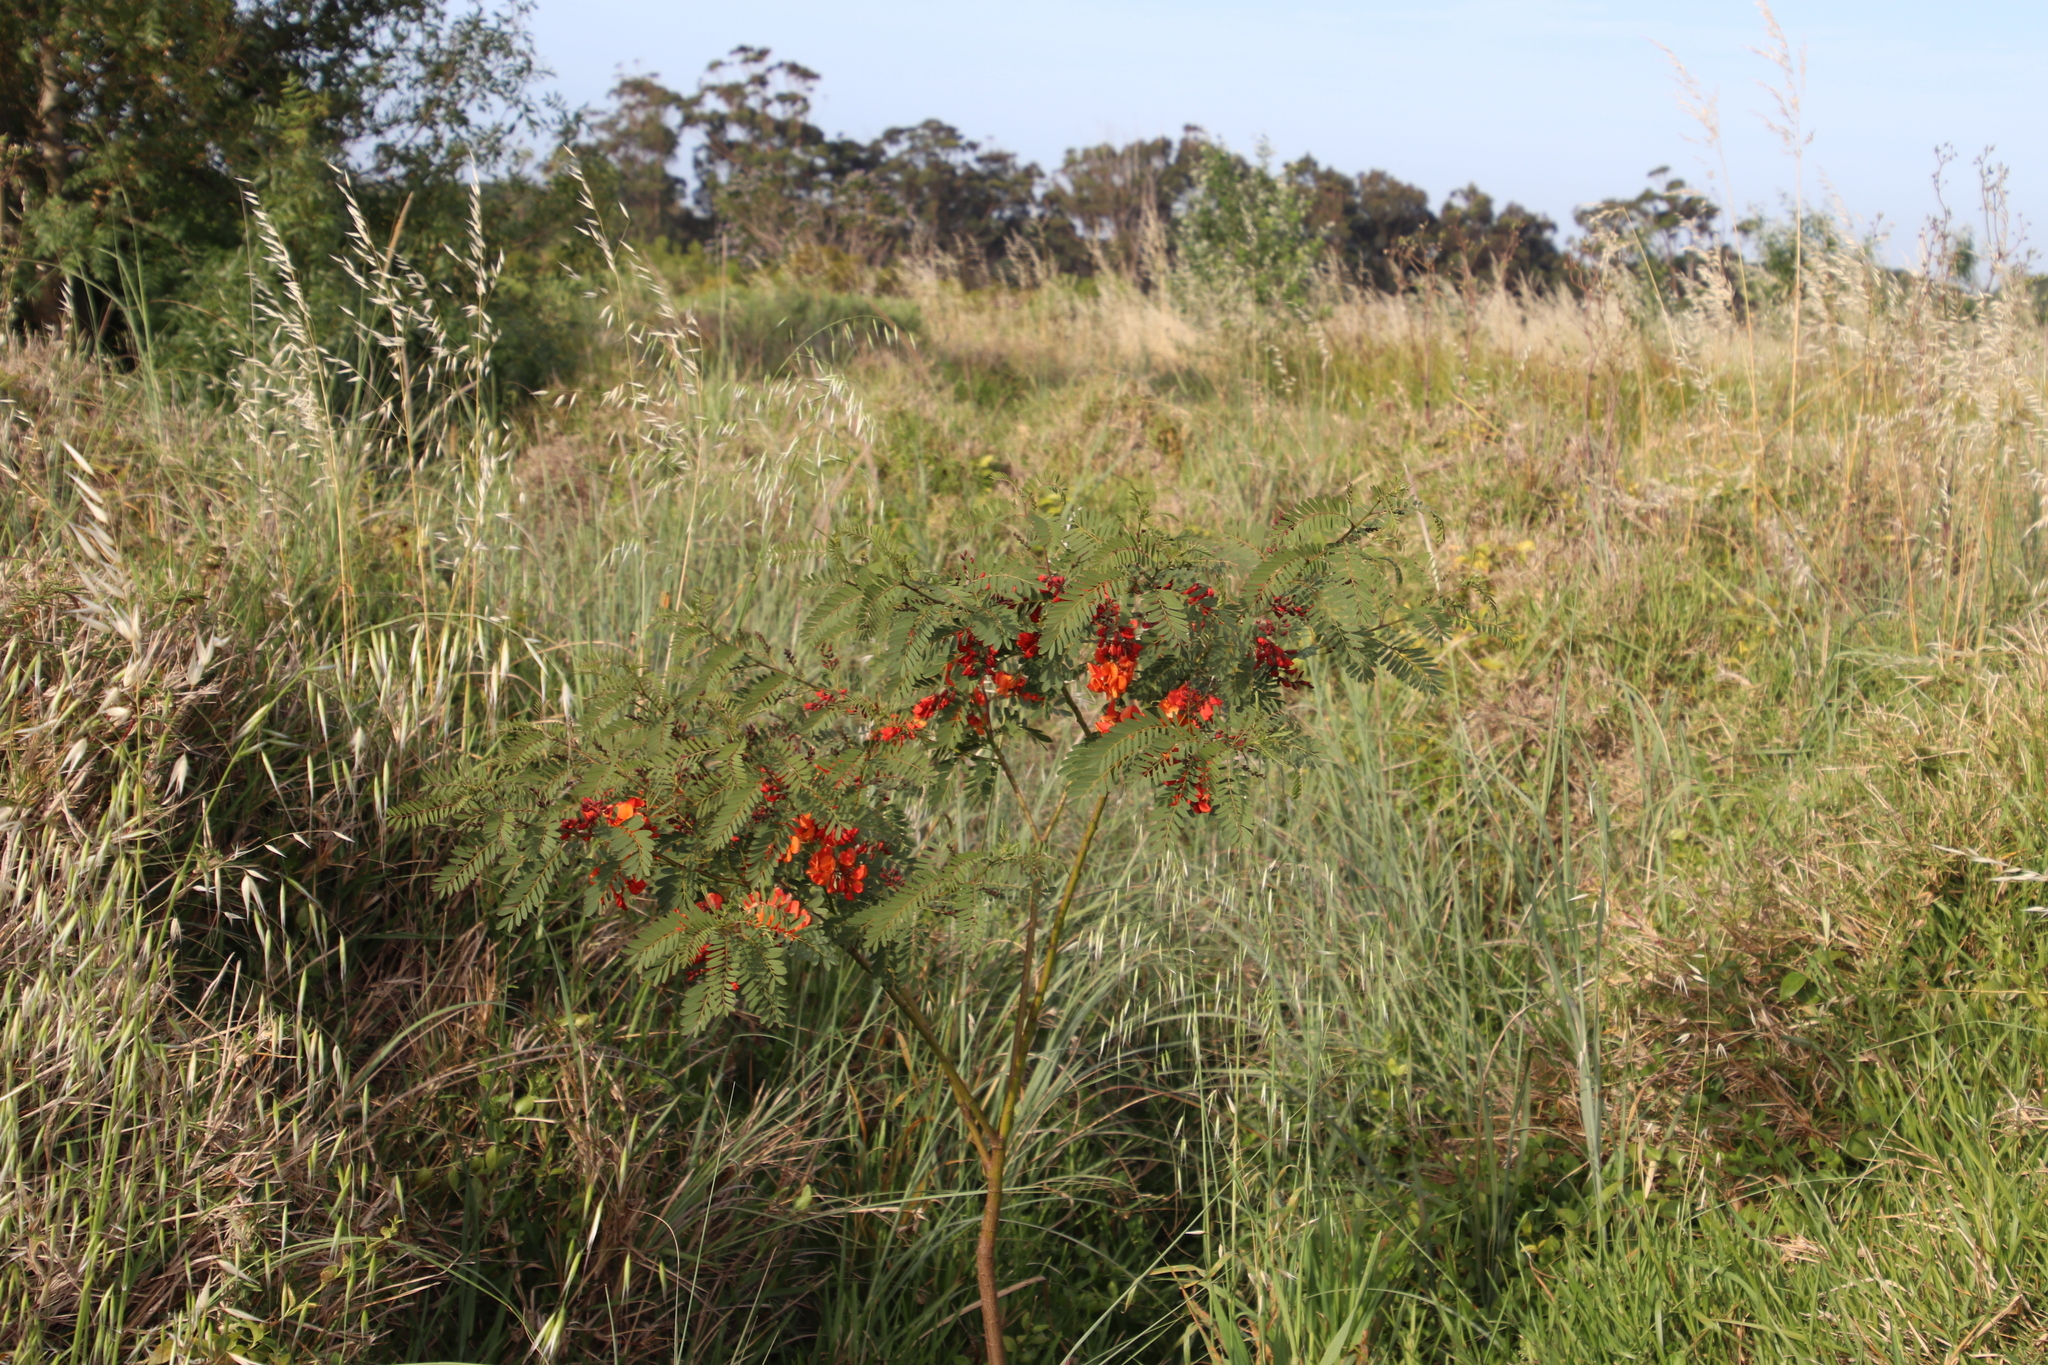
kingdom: Plantae
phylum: Tracheophyta
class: Magnoliopsida
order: Fabales
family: Fabaceae
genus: Sesbania
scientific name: Sesbania punicea
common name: Rattlebox
